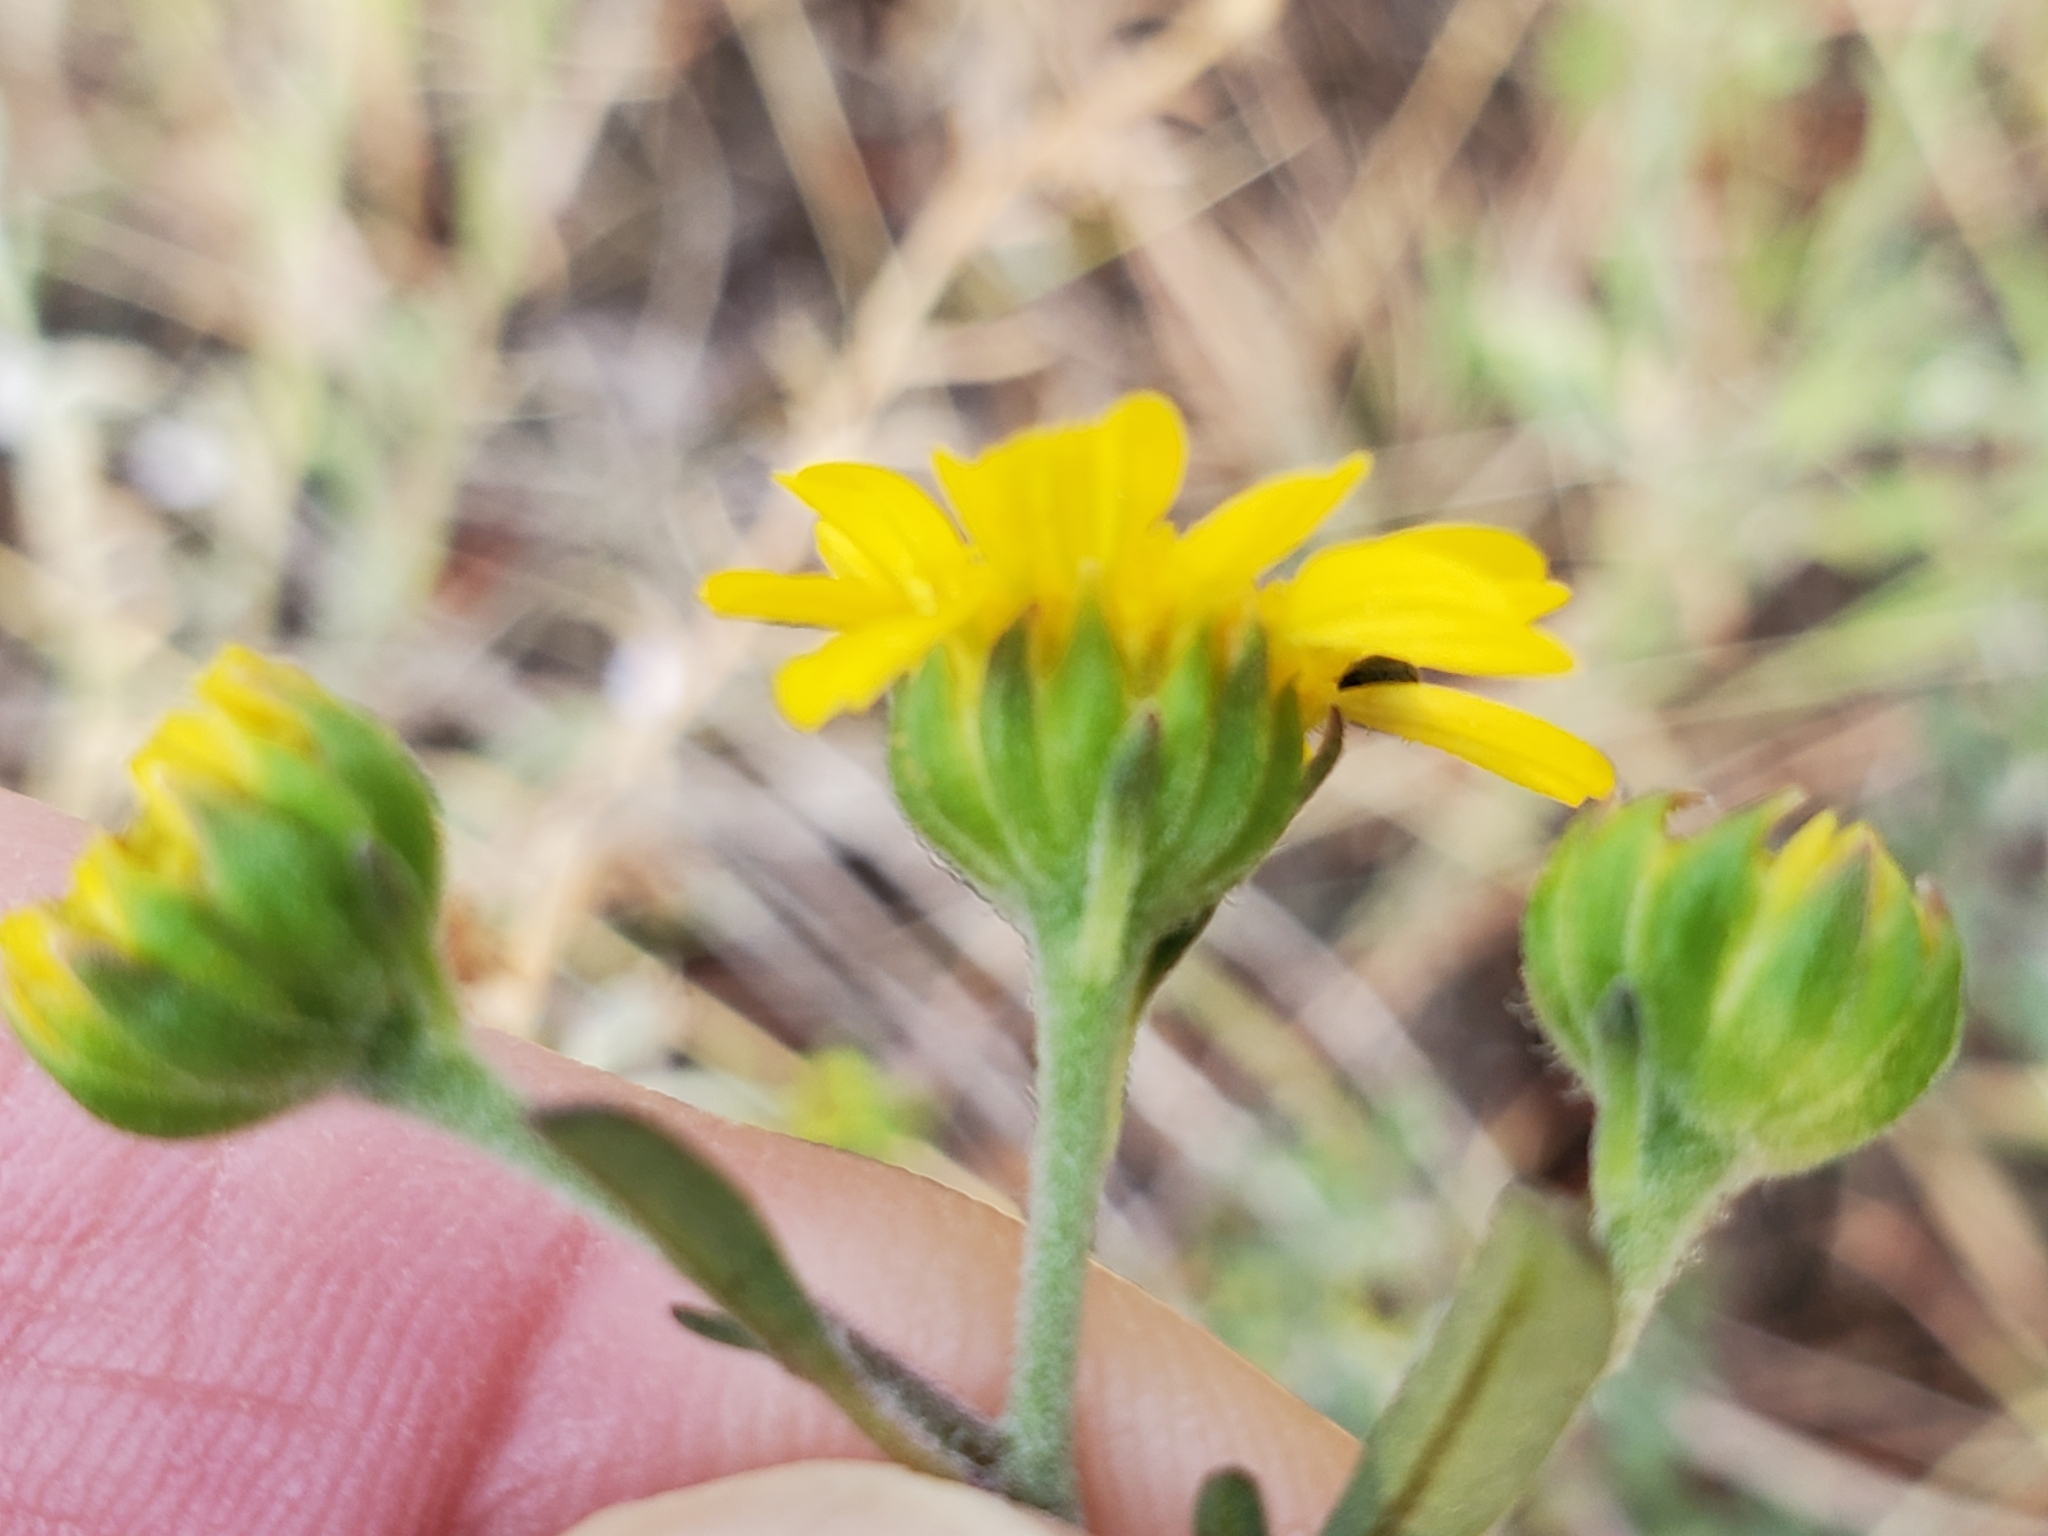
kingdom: Plantae
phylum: Tracheophyta
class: Magnoliopsida
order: Asterales
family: Asteraceae
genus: Hymenothrix
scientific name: Hymenothrix dissecta
